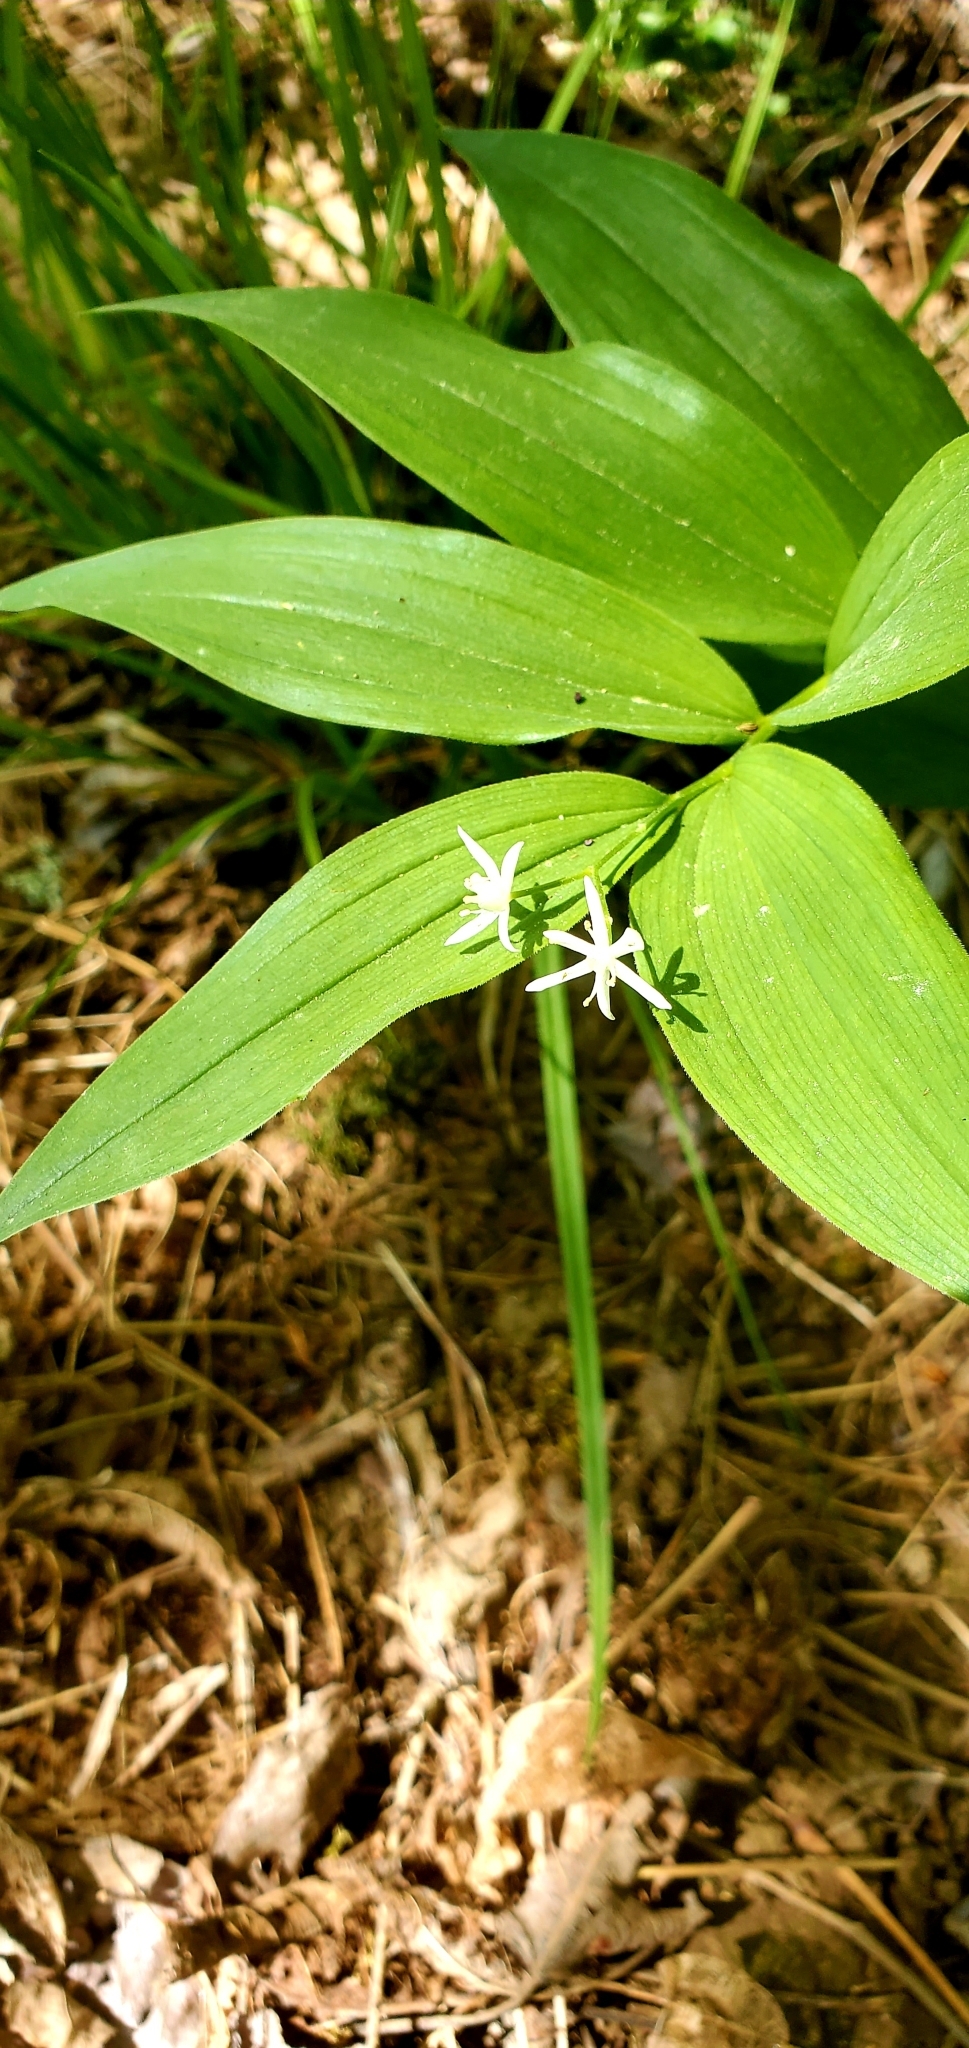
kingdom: Plantae
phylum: Tracheophyta
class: Liliopsida
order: Asparagales
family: Asparagaceae
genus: Maianthemum
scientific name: Maianthemum stellatum
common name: Little false solomon's seal
